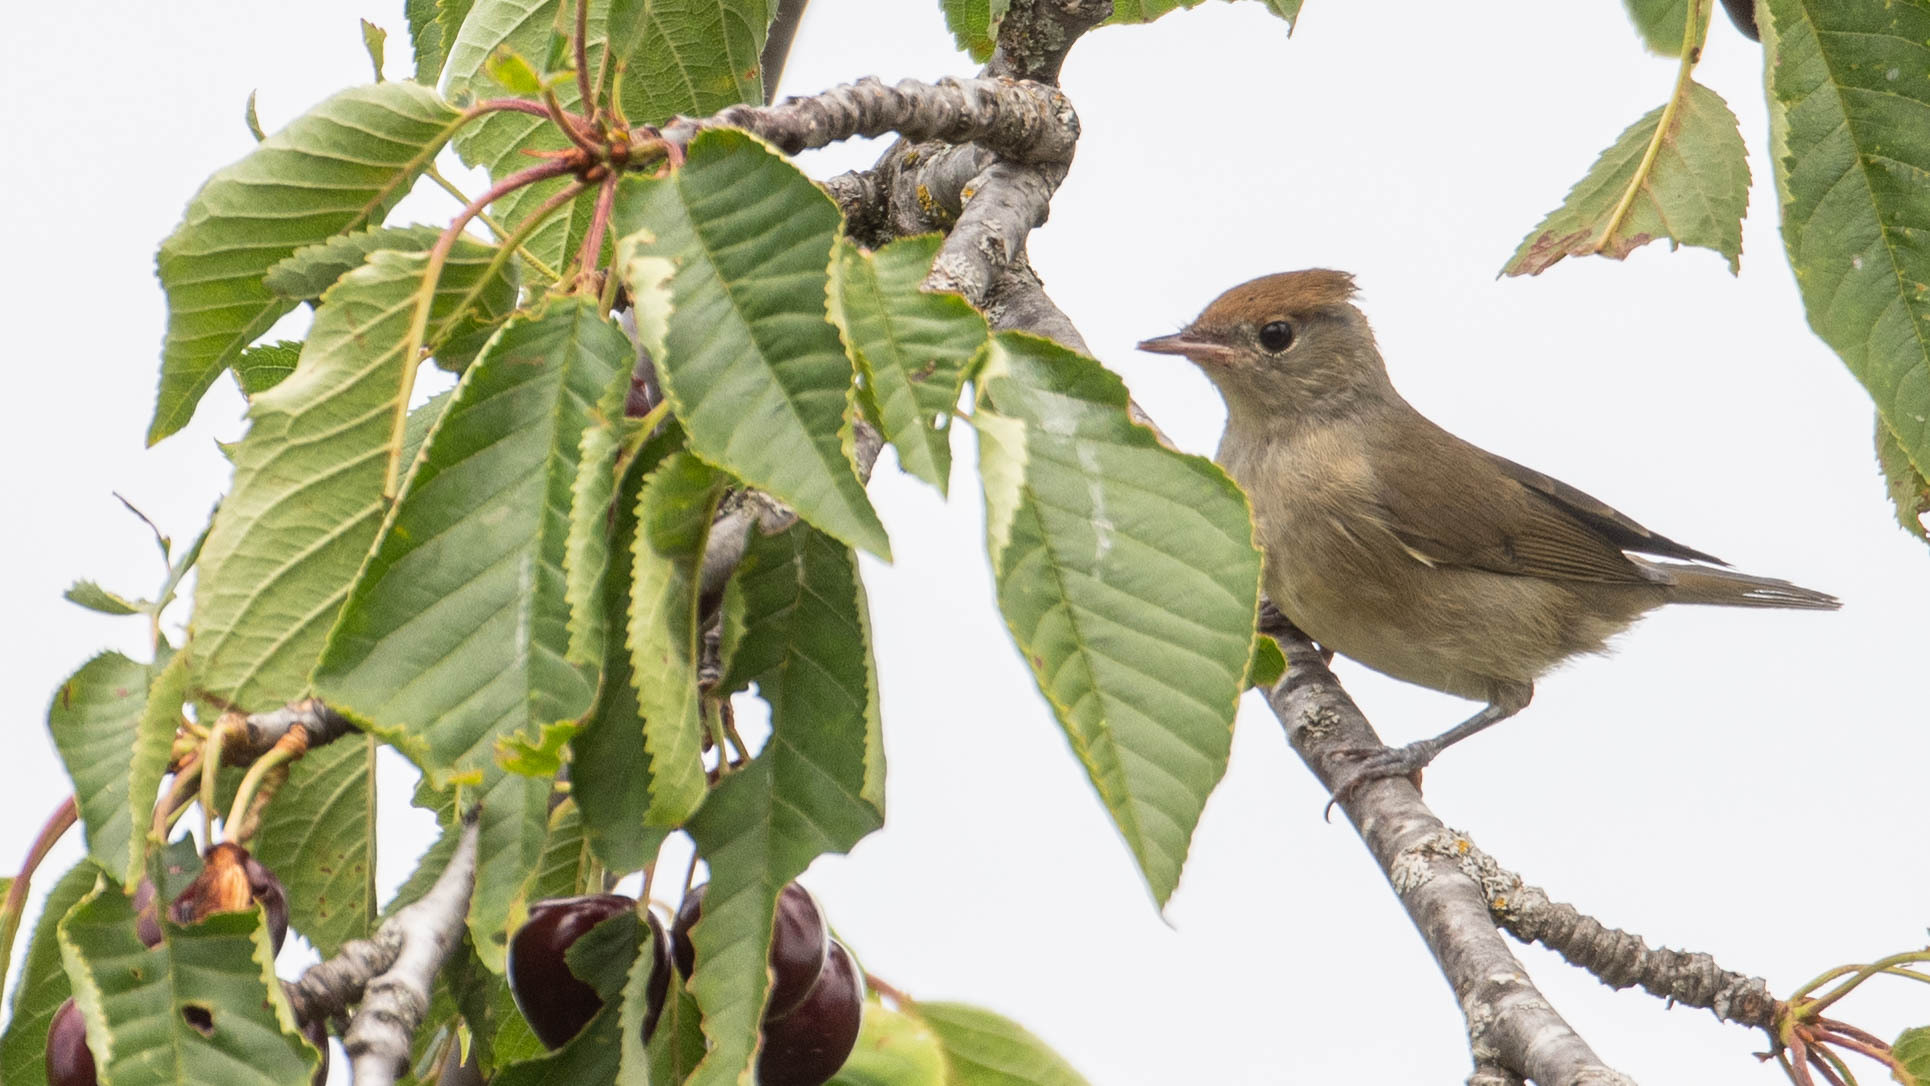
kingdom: Animalia
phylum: Chordata
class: Aves
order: Passeriformes
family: Sylviidae
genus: Sylvia
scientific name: Sylvia atricapilla
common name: Eurasian blackcap
